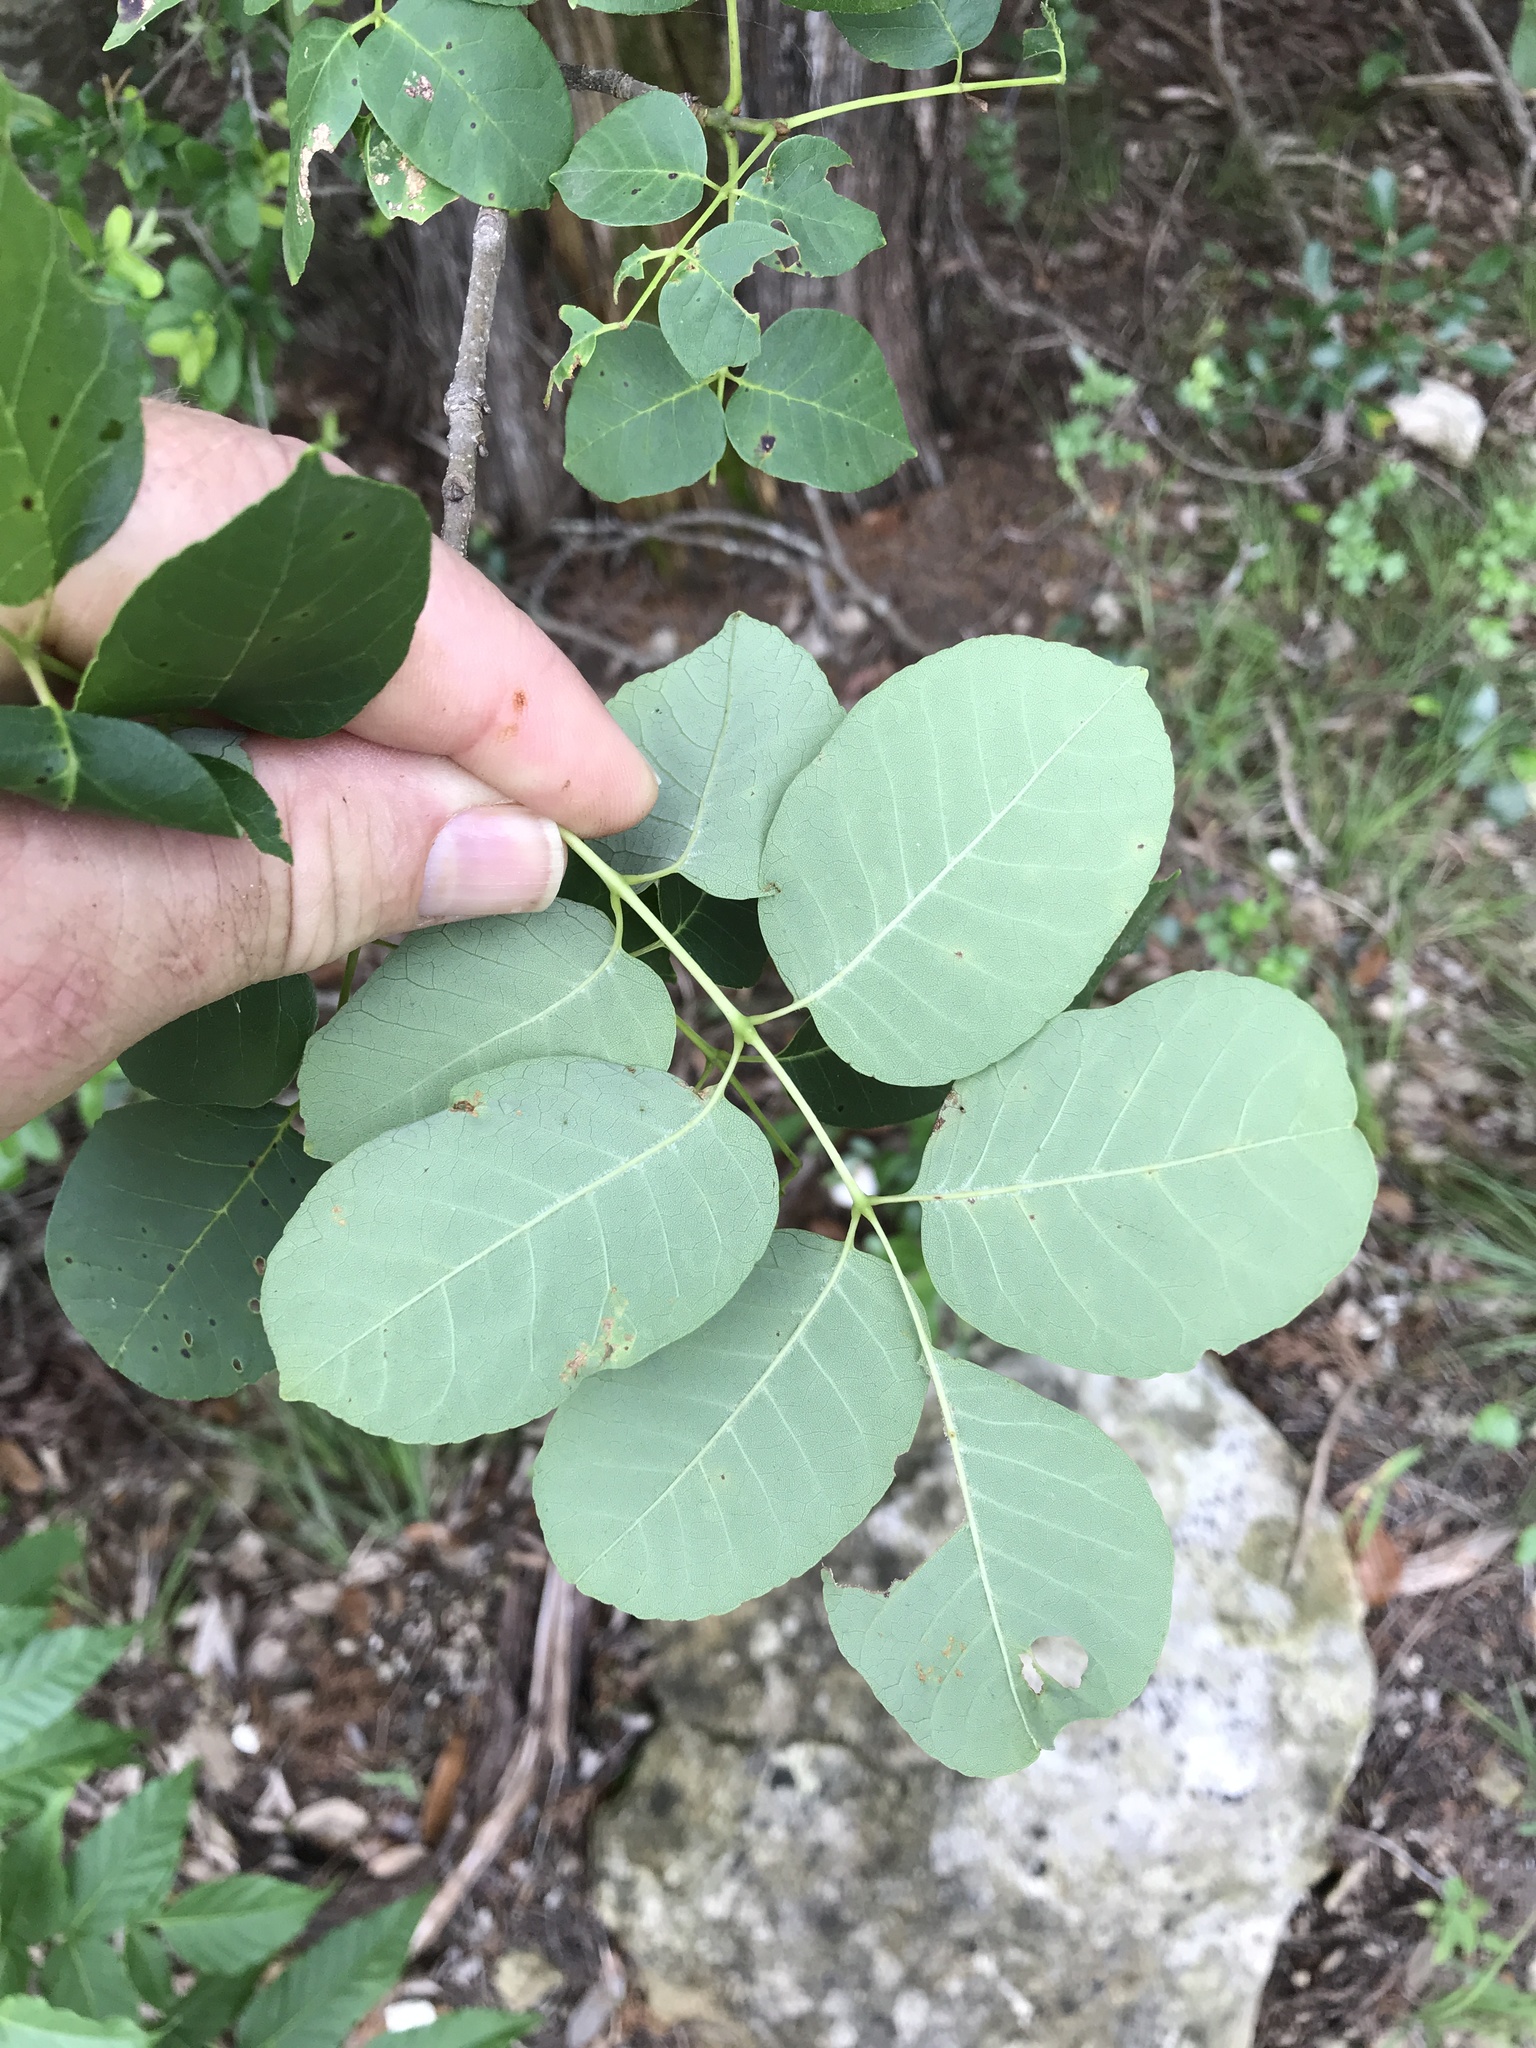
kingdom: Plantae
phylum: Tracheophyta
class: Magnoliopsida
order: Lamiales
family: Oleaceae
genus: Fraxinus
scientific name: Fraxinus albicans
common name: Texas ash
